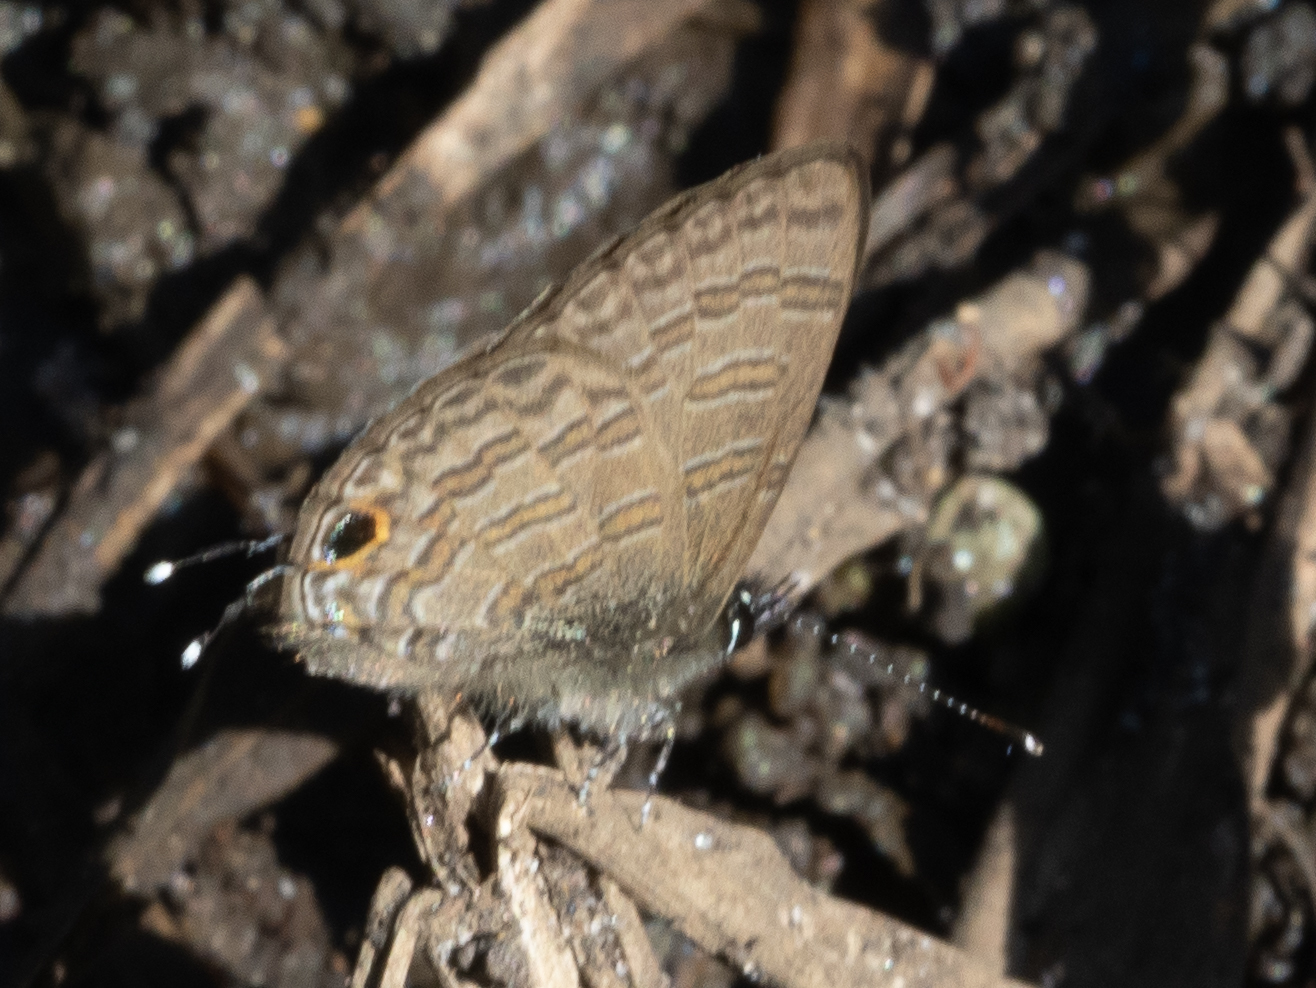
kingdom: Animalia
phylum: Arthropoda
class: Insecta
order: Lepidoptera
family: Lycaenidae
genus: Prosotas
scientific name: Prosotas nora
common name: Common line blue
